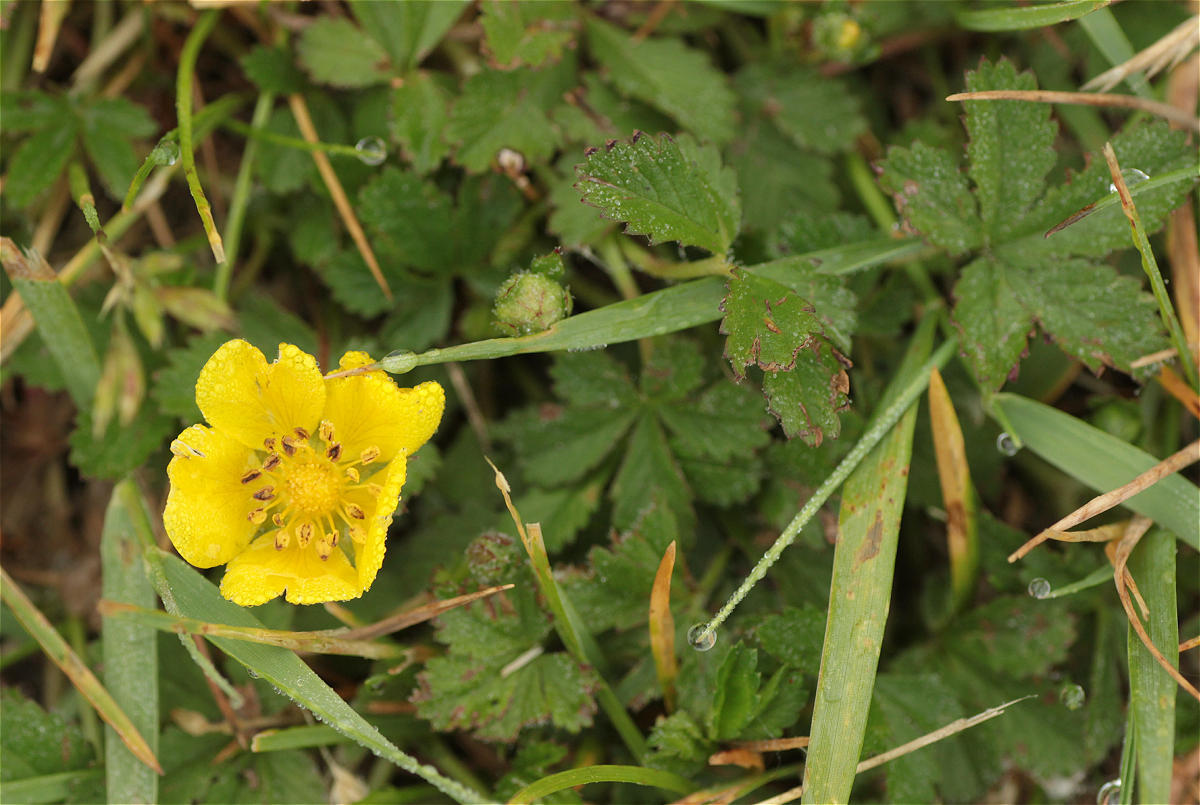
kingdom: Plantae
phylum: Tracheophyta
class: Magnoliopsida
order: Rosales
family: Rosaceae
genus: Potentilla
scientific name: Potentilla reptans
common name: Creeping cinquefoil
